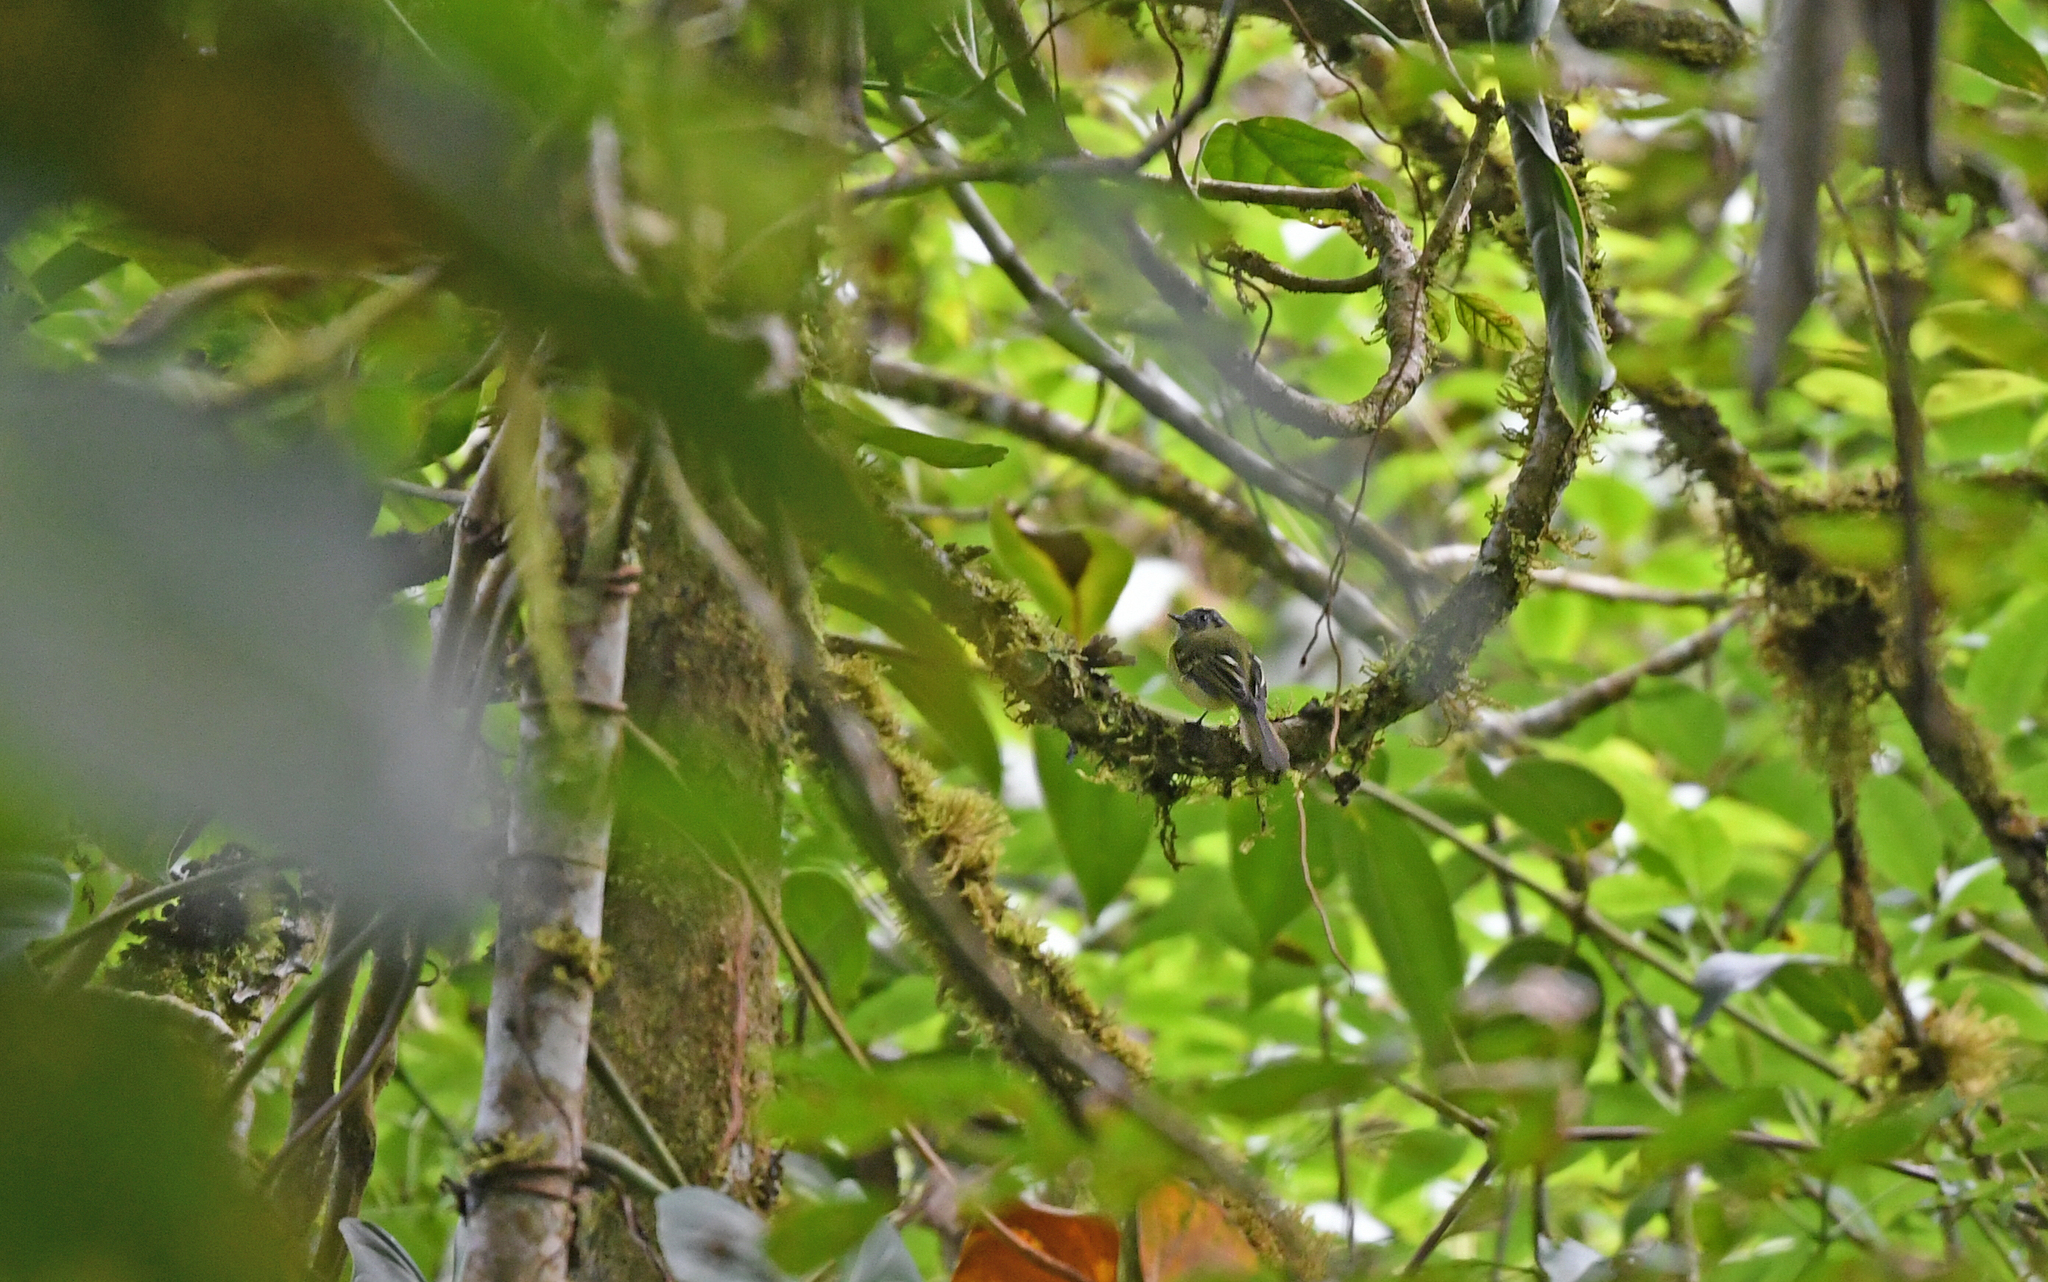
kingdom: Animalia
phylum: Chordata
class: Aves
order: Passeriformes
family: Tyrannidae
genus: Phyllomyias
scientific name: Phyllomyias plumbeiceps
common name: Plumbeous-crowned tyrannulet
